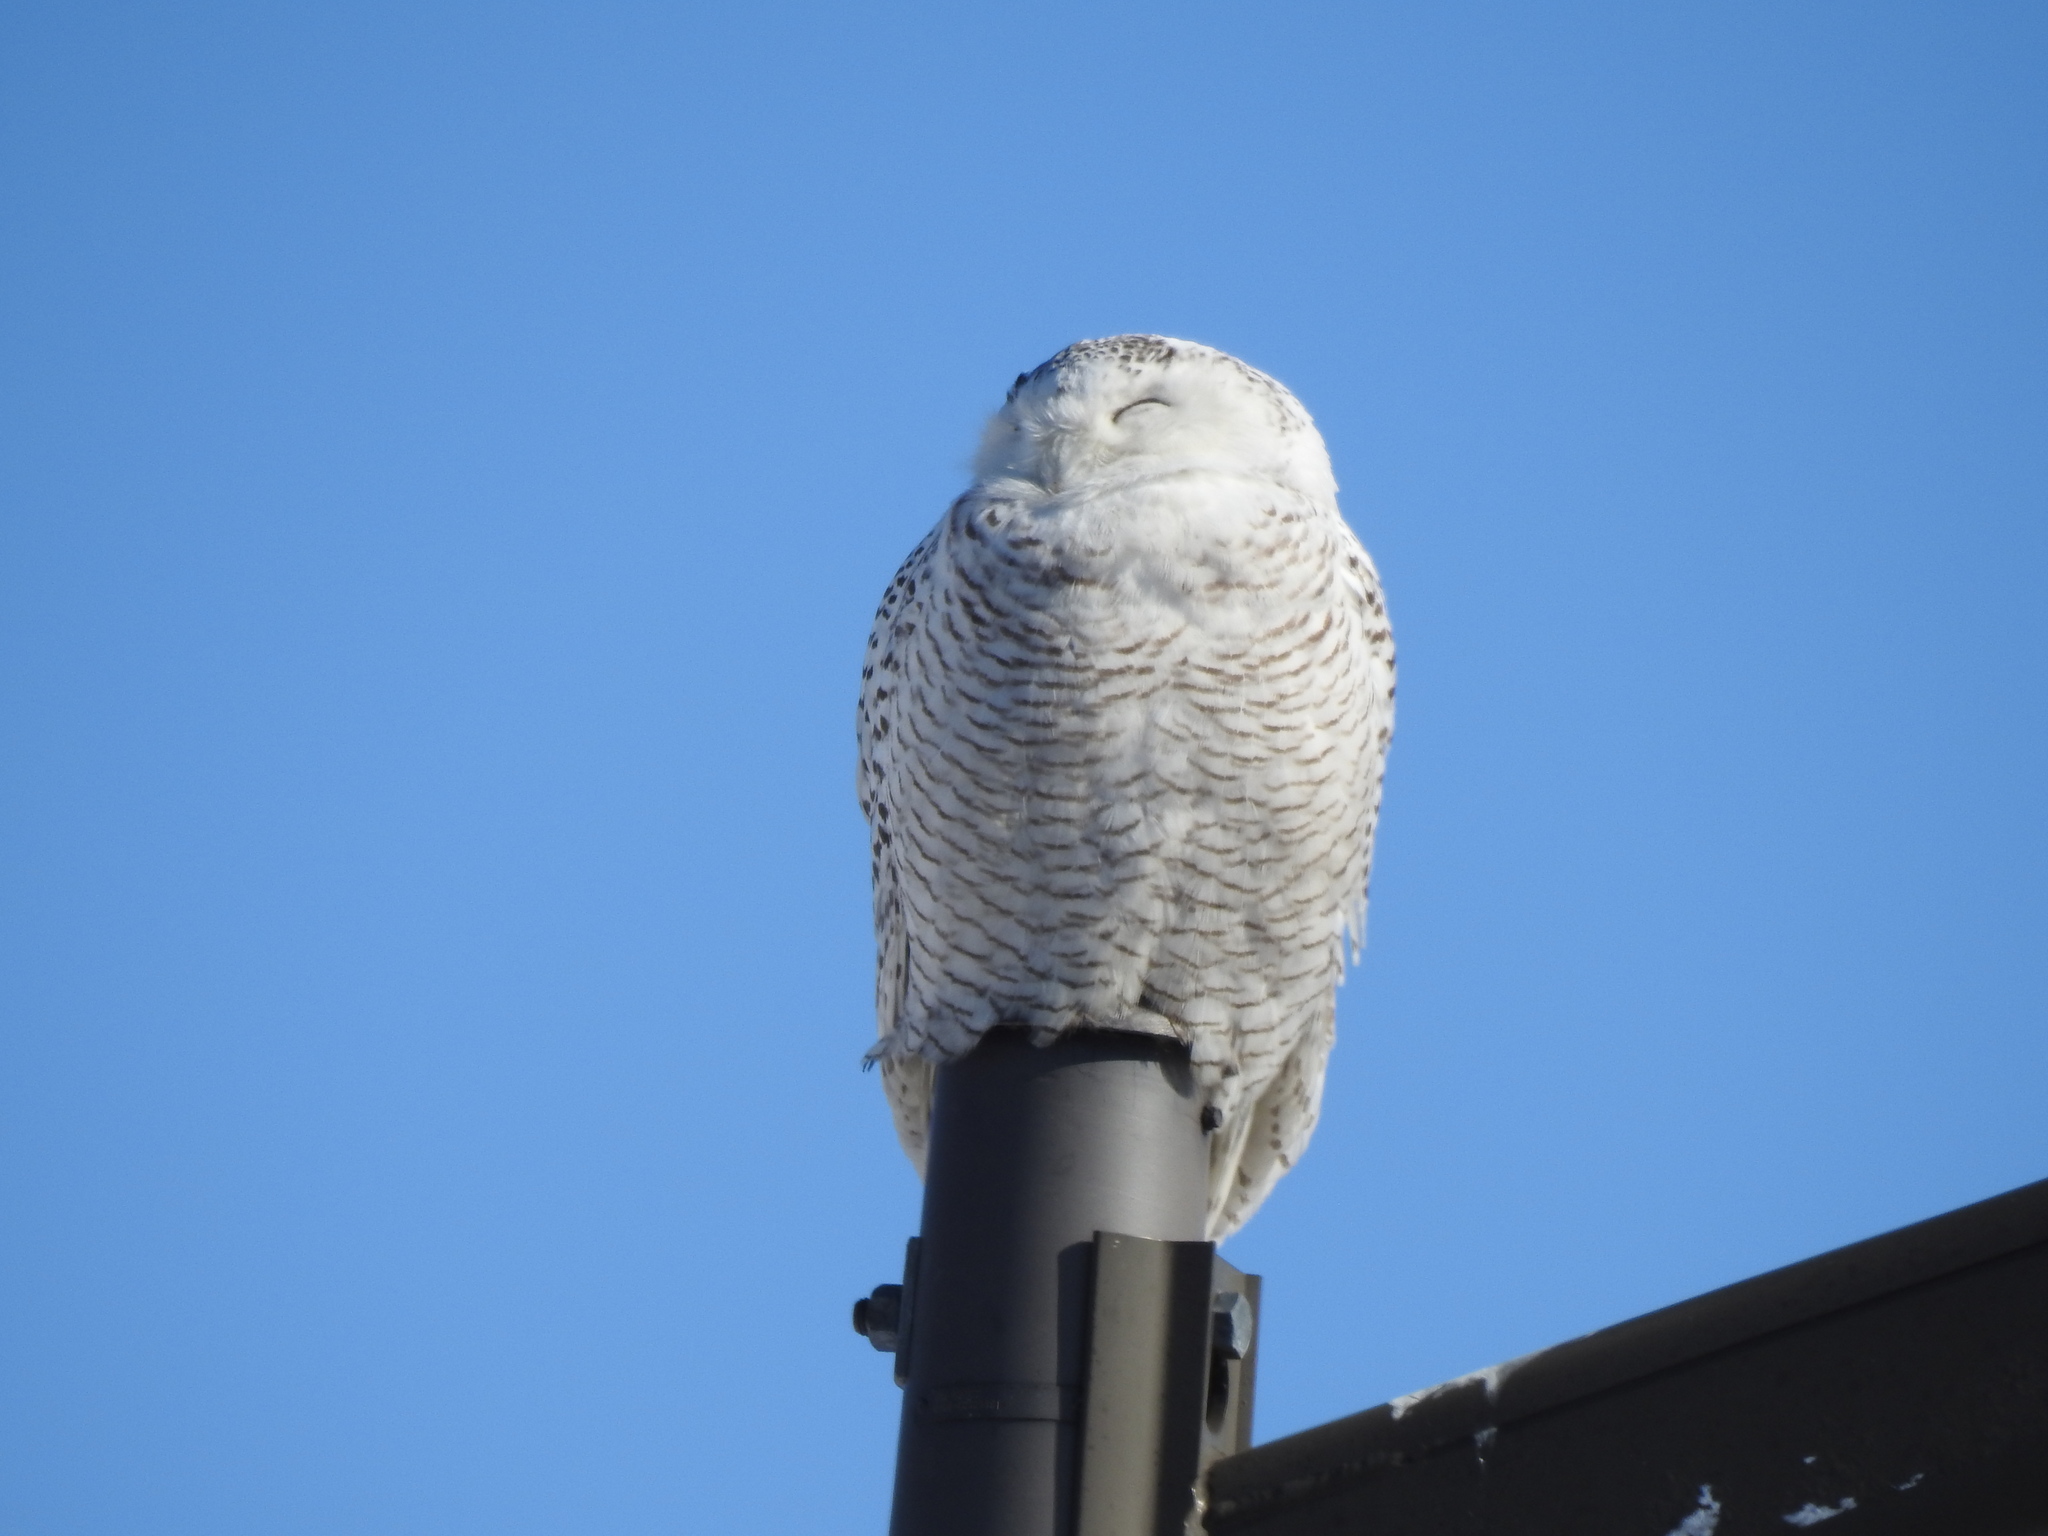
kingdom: Animalia
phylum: Chordata
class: Aves
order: Strigiformes
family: Strigidae
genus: Bubo
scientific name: Bubo scandiacus
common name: Snowy owl
